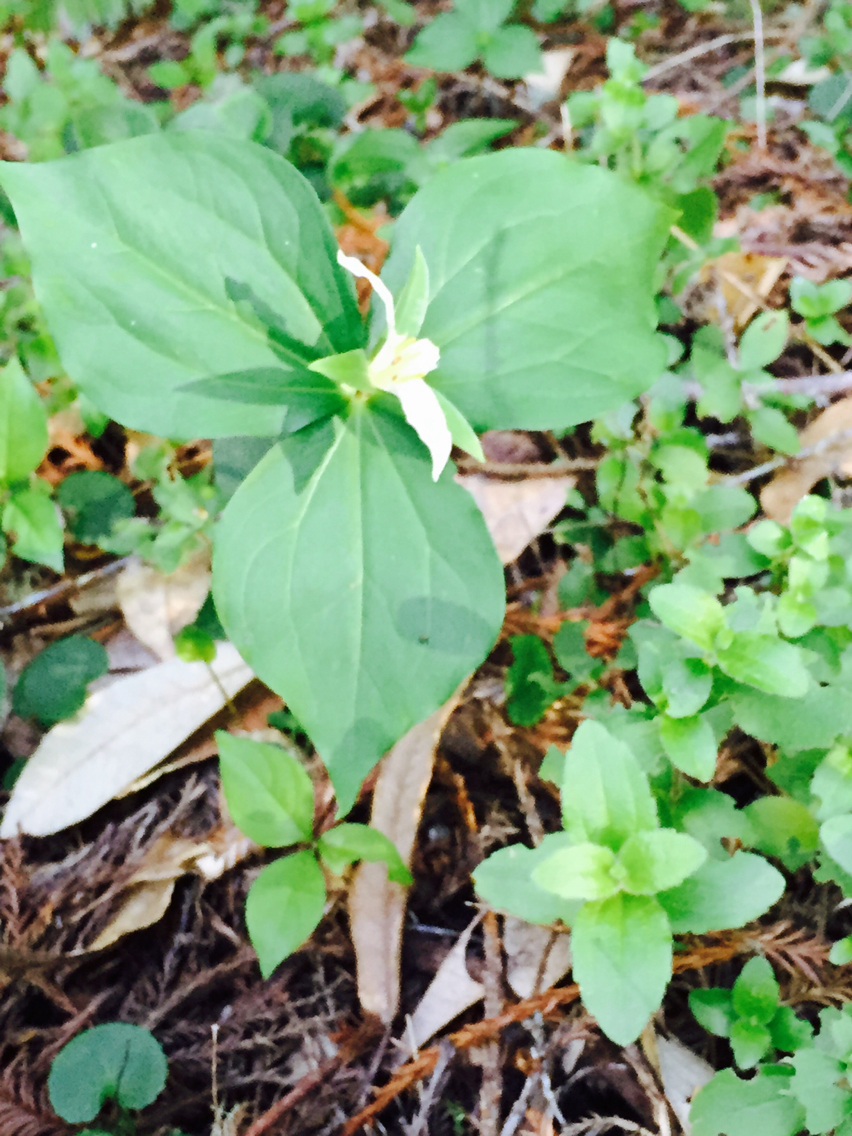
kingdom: Plantae
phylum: Tracheophyta
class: Liliopsida
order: Liliales
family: Melanthiaceae
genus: Trillium
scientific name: Trillium ovatum
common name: Pacific trillium
